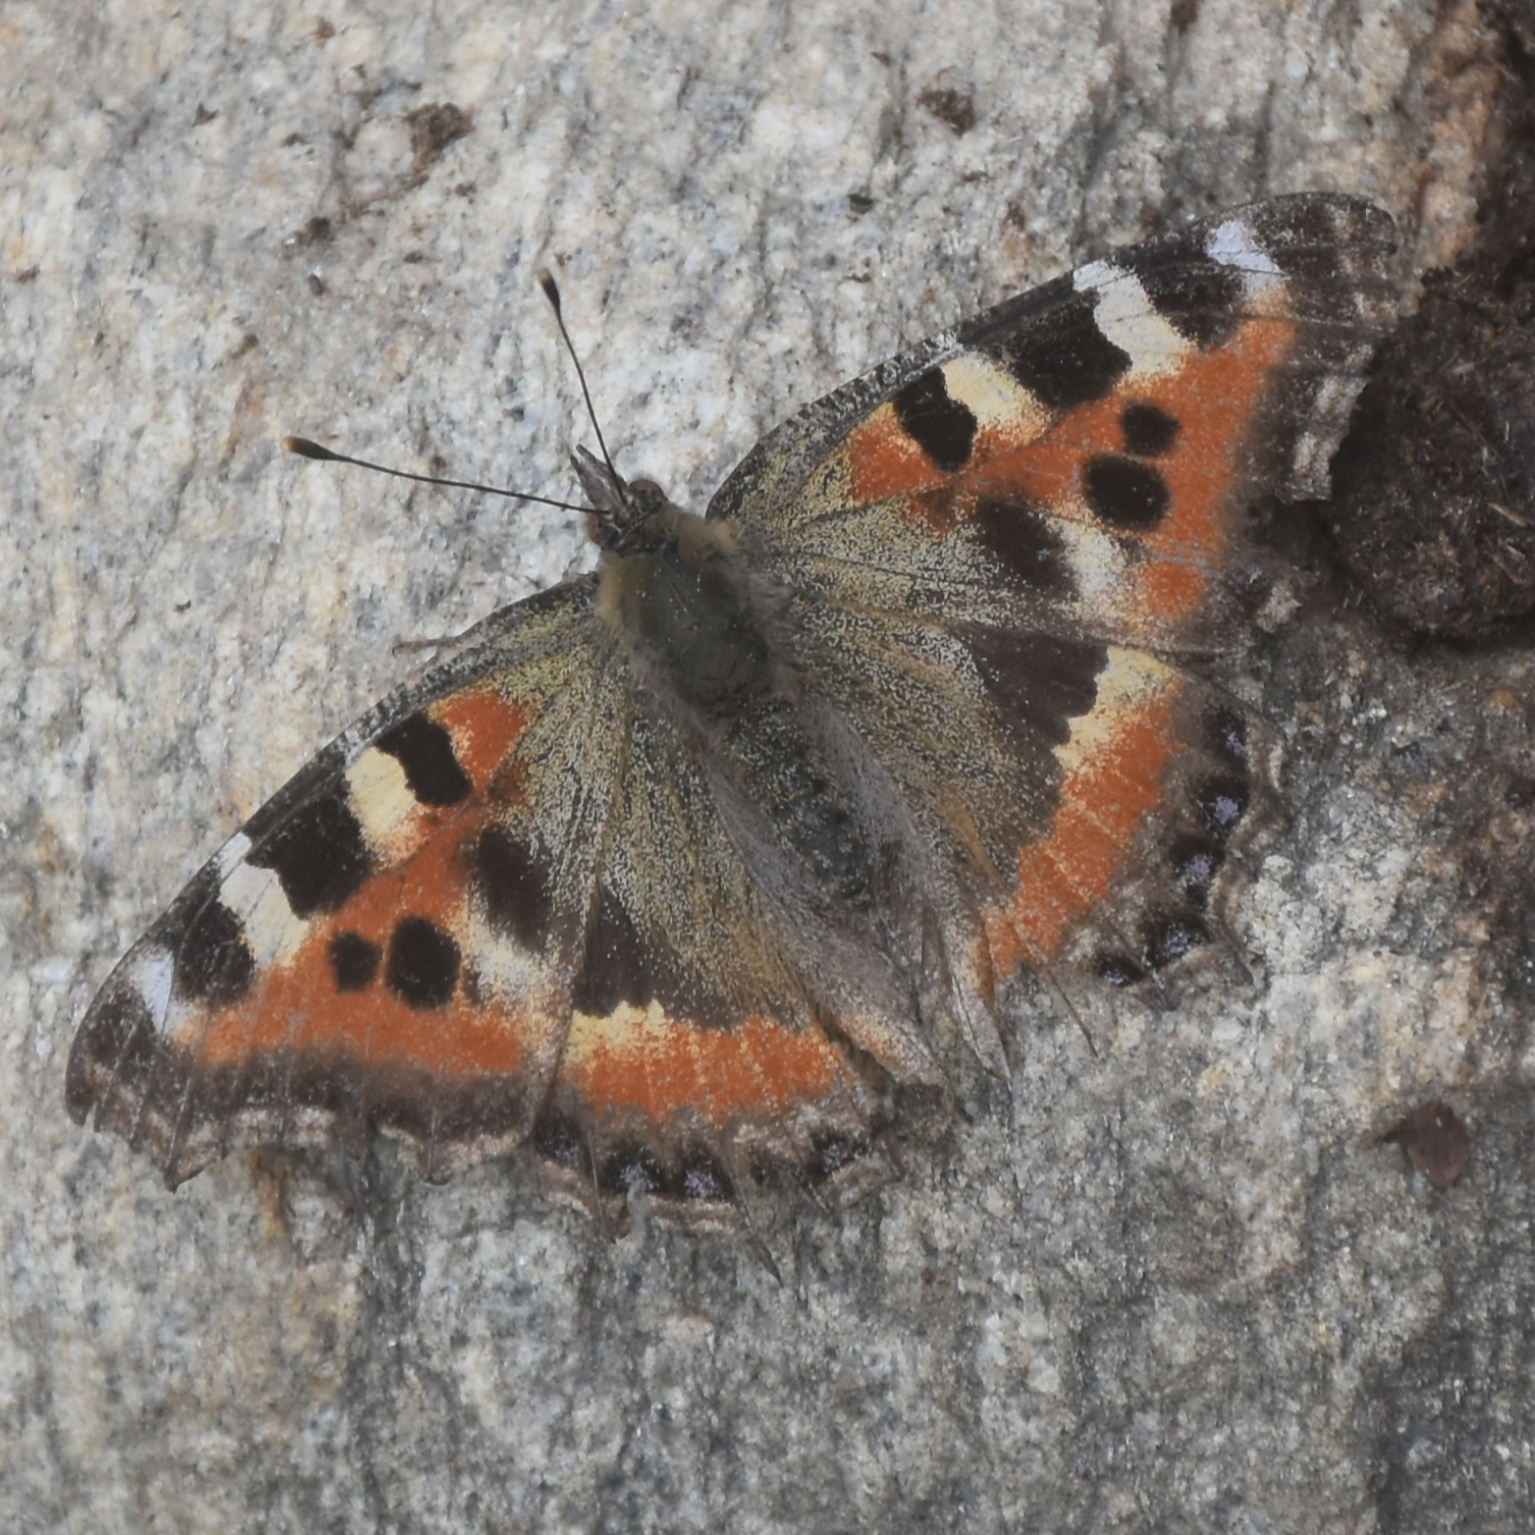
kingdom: Animalia
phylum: Arthropoda
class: Insecta
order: Lepidoptera
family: Nymphalidae
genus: Aglais
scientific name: Aglais caschmirensis
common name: Indian tortoiseshell
